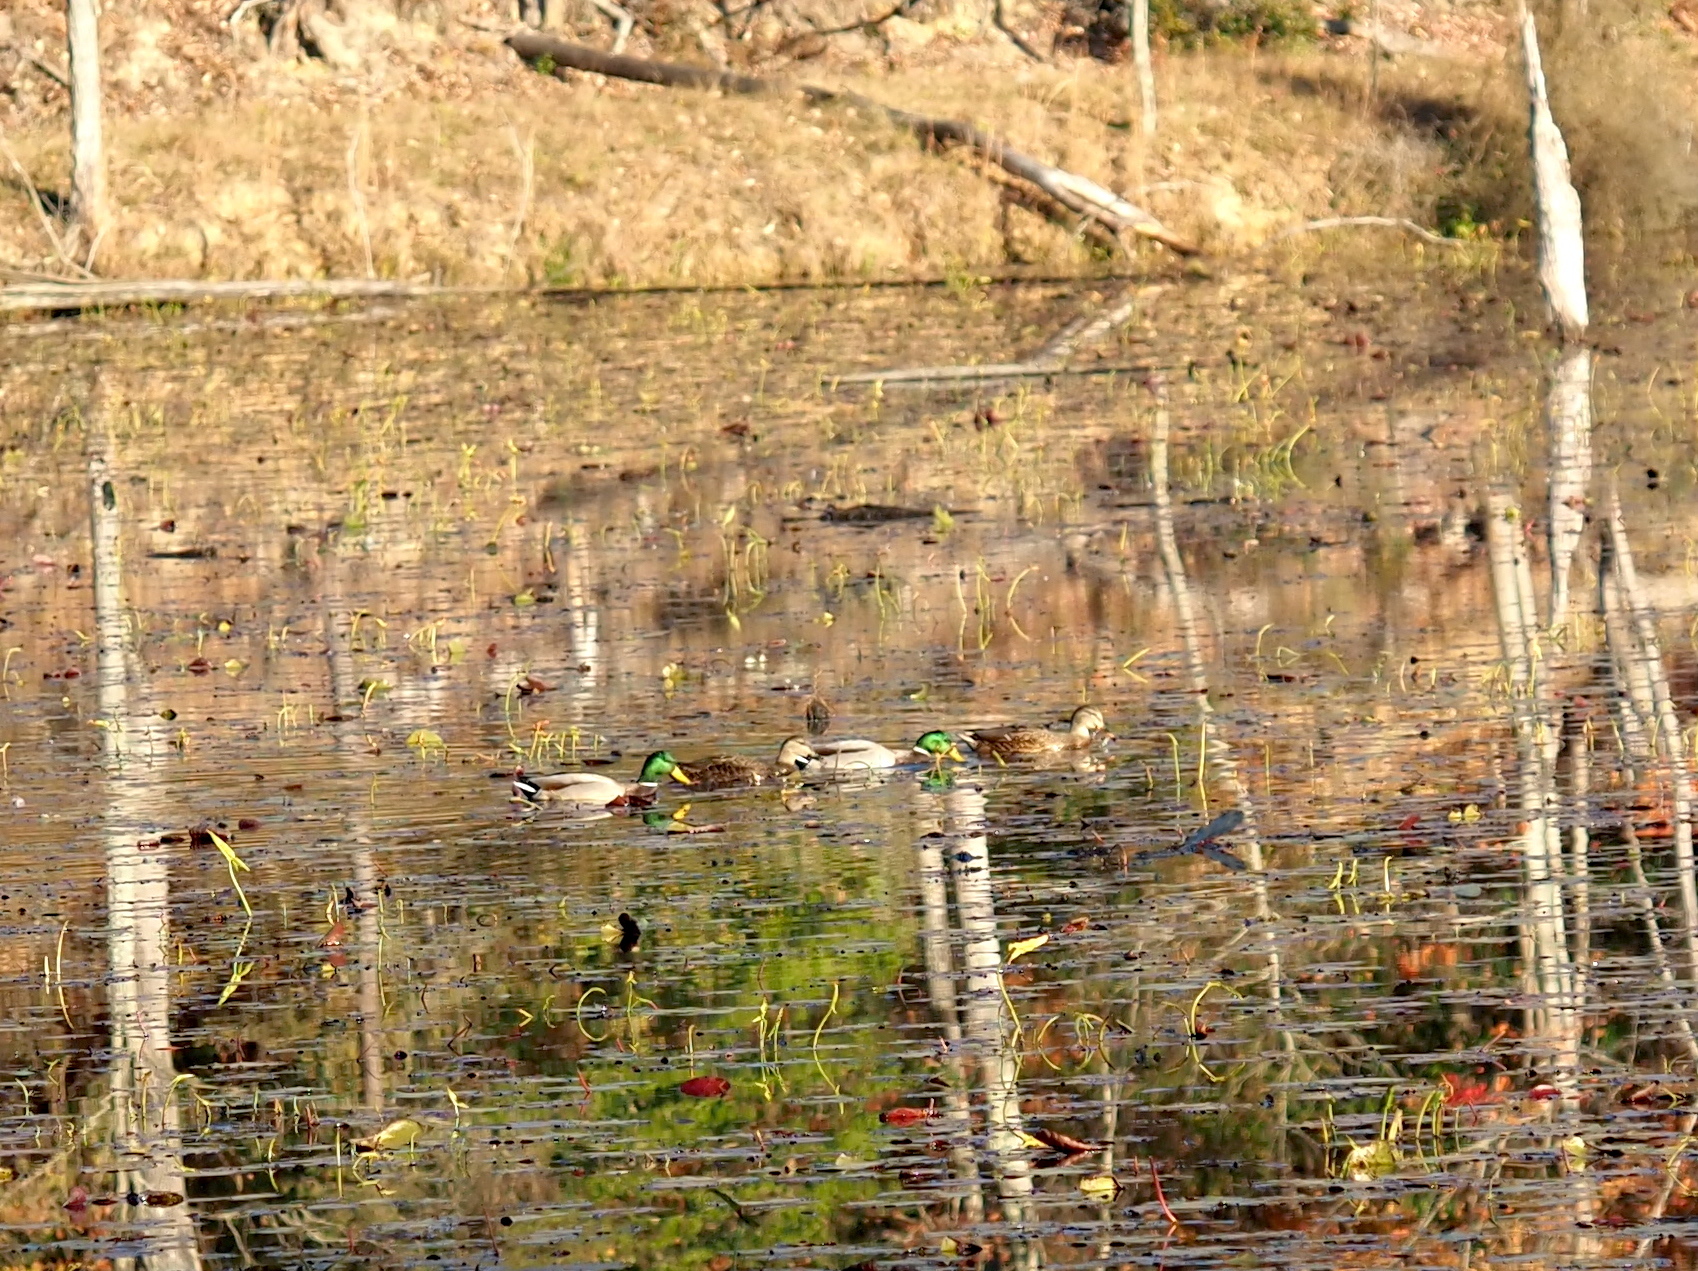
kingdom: Animalia
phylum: Chordata
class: Aves
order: Anseriformes
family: Anatidae
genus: Anas
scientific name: Anas platyrhynchos
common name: Mallard
